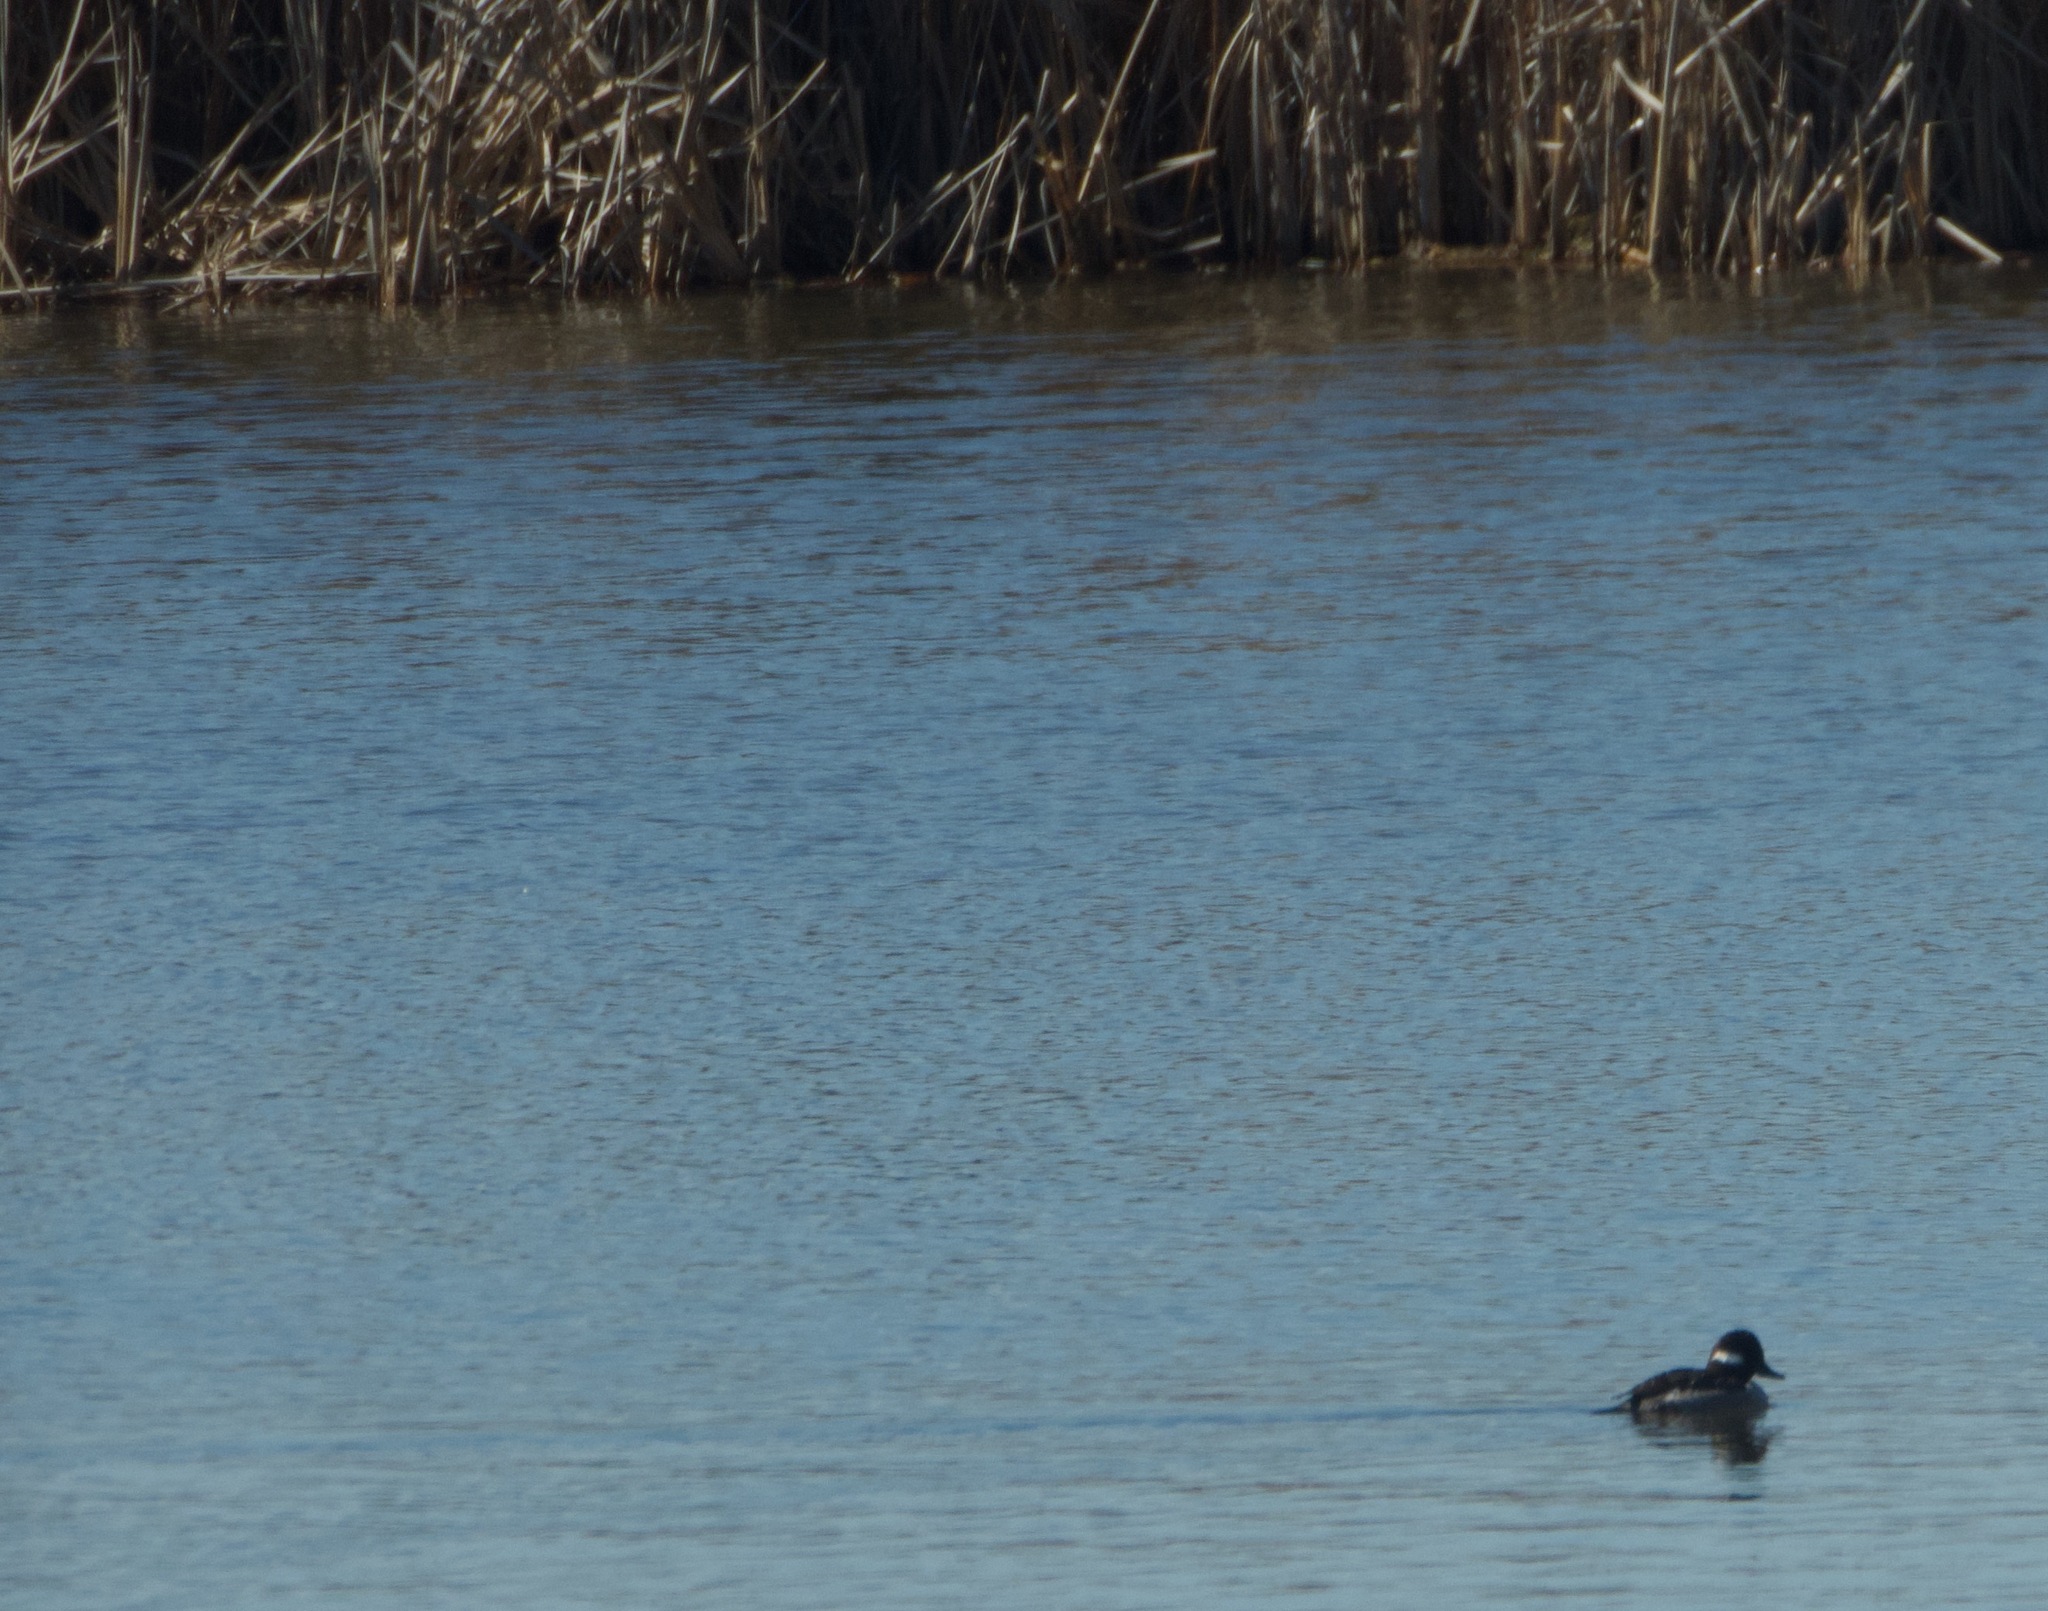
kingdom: Animalia
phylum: Chordata
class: Aves
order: Anseriformes
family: Anatidae
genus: Bucephala
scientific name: Bucephala albeola
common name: Bufflehead
